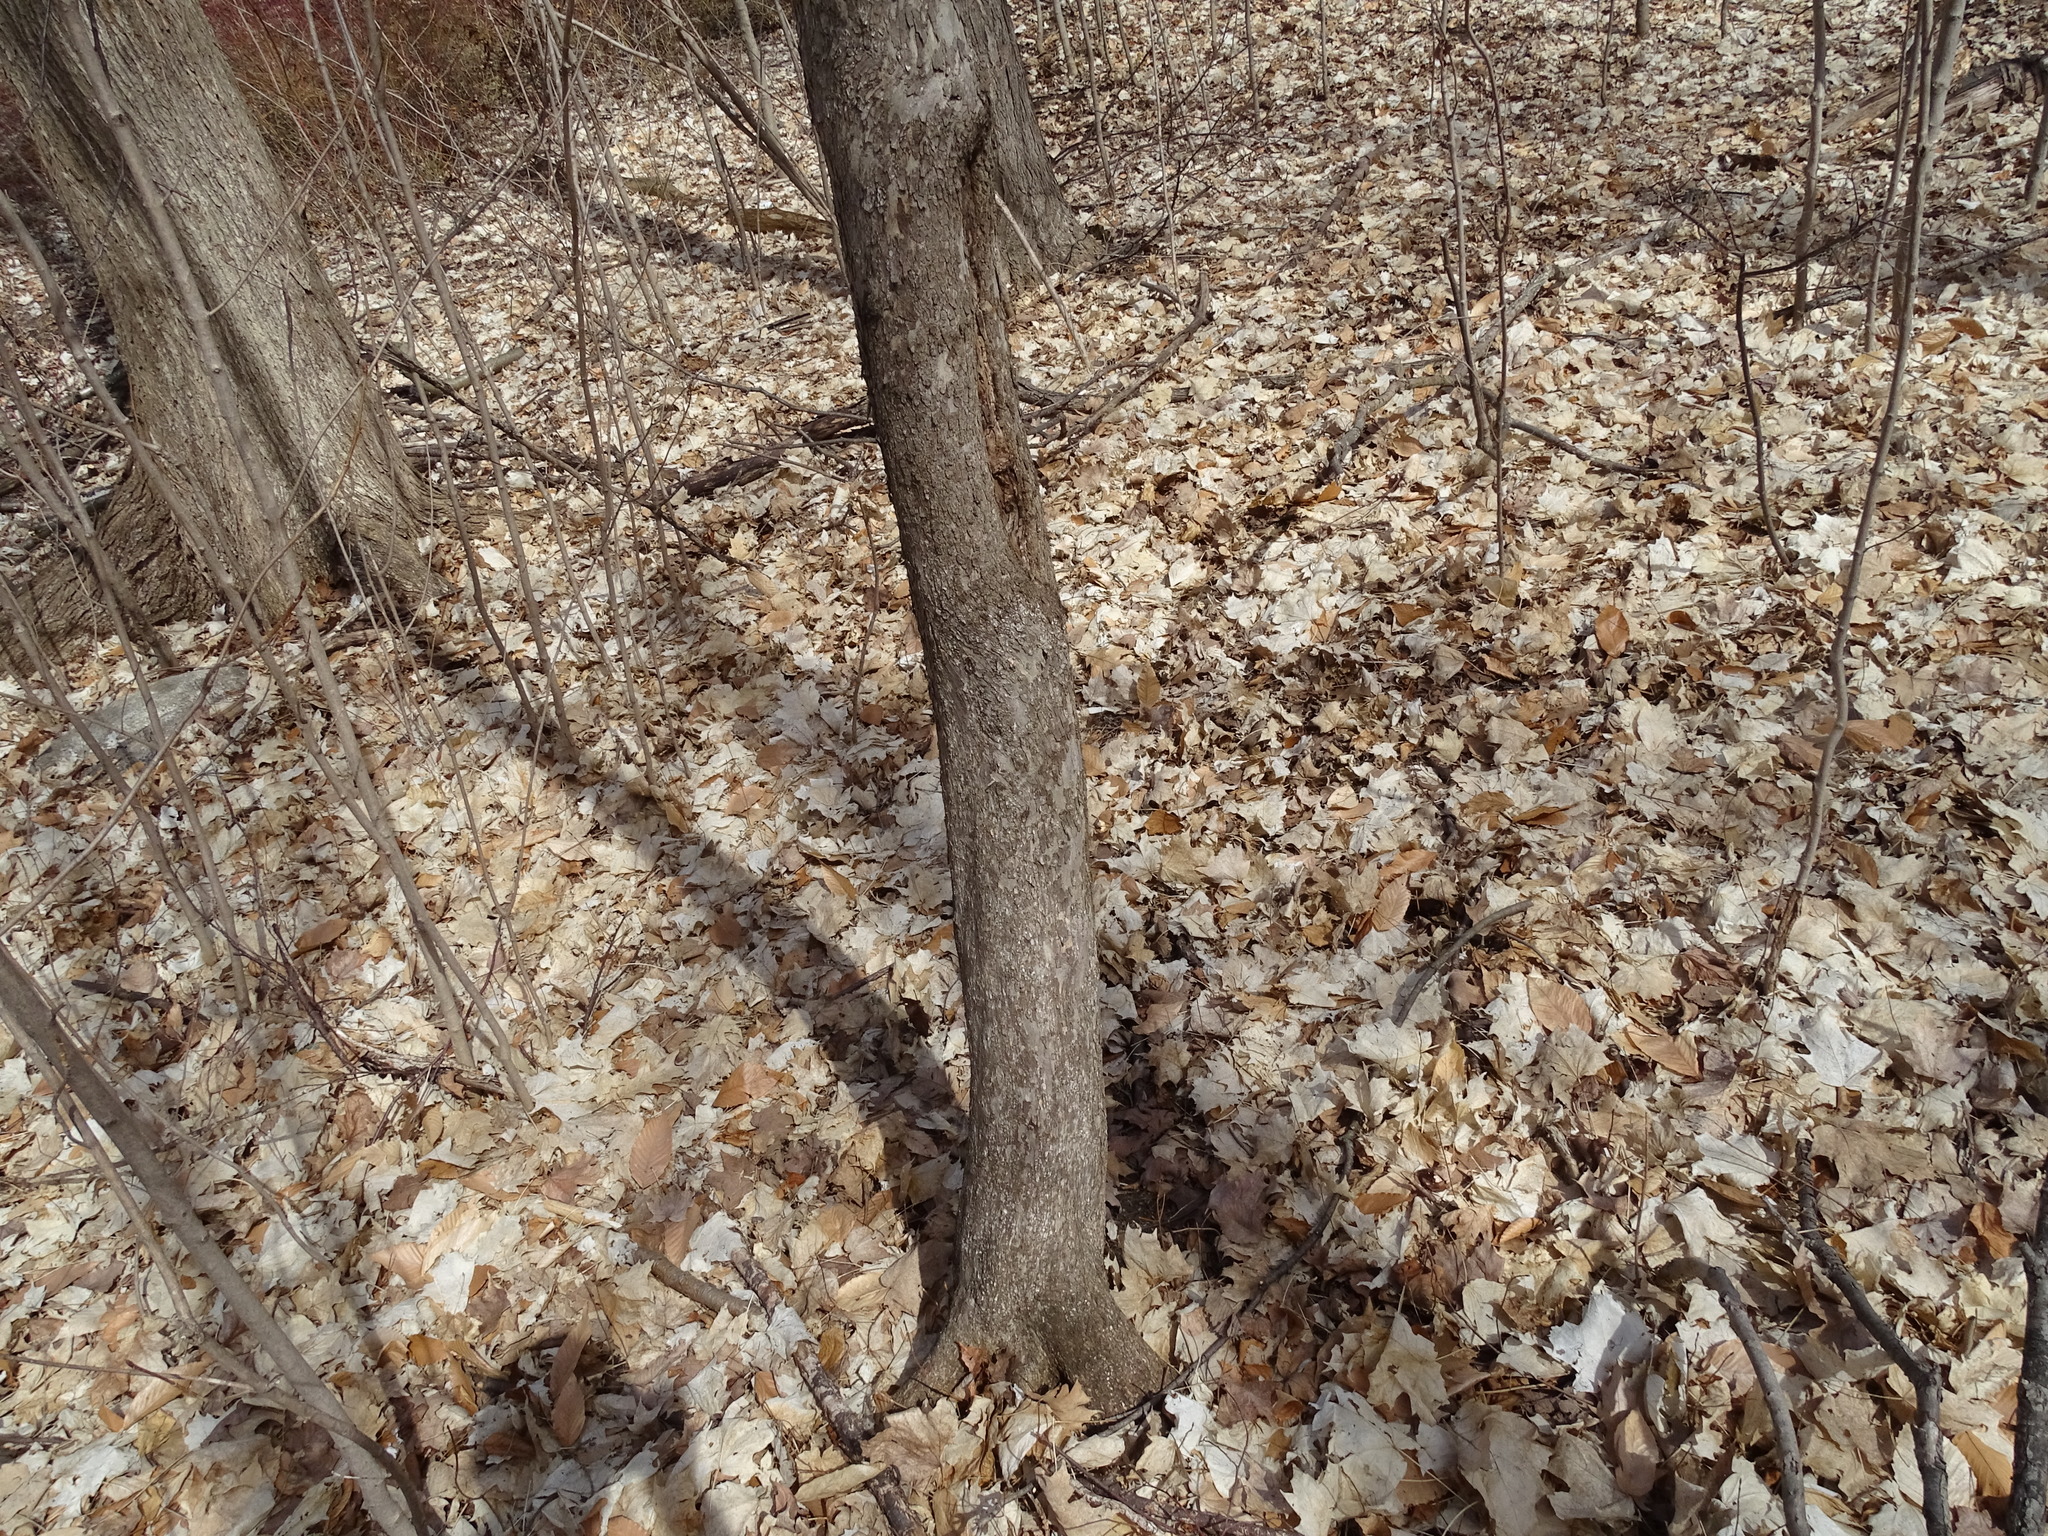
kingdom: Plantae
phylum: Tracheophyta
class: Magnoliopsida
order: Fagales
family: Betulaceae
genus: Ostrya
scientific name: Ostrya virginiana
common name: Ironwood
